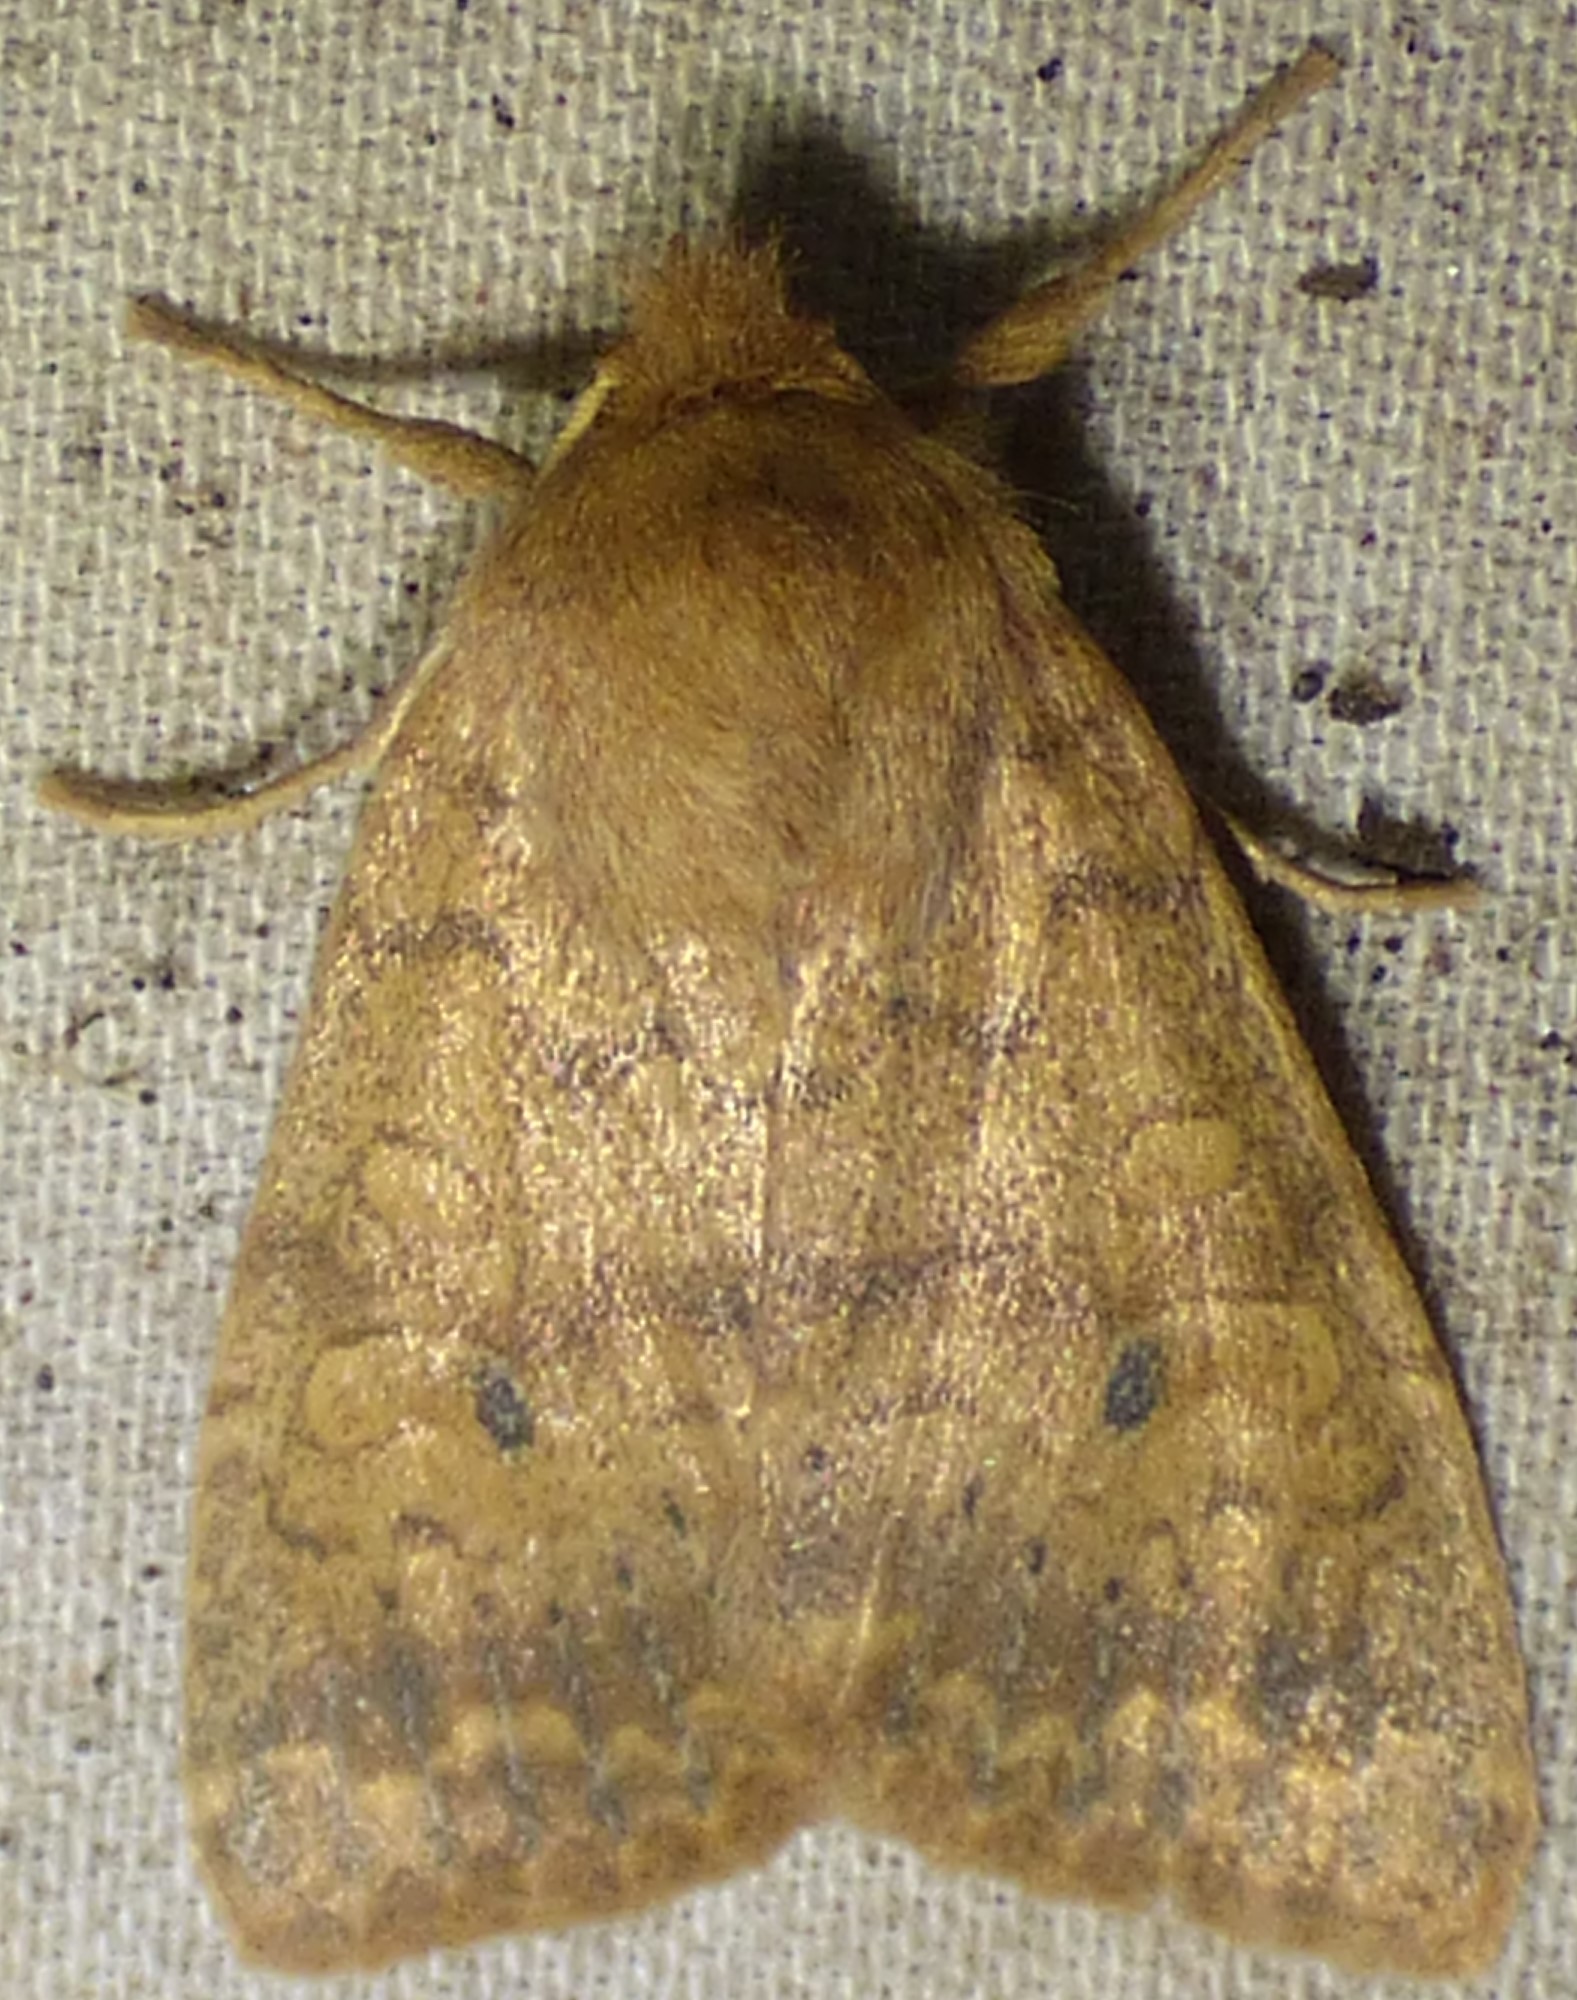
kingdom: Animalia
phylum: Arthropoda
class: Insecta
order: Lepidoptera
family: Noctuidae
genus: Agrochola
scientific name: Agrochola bicolorago
